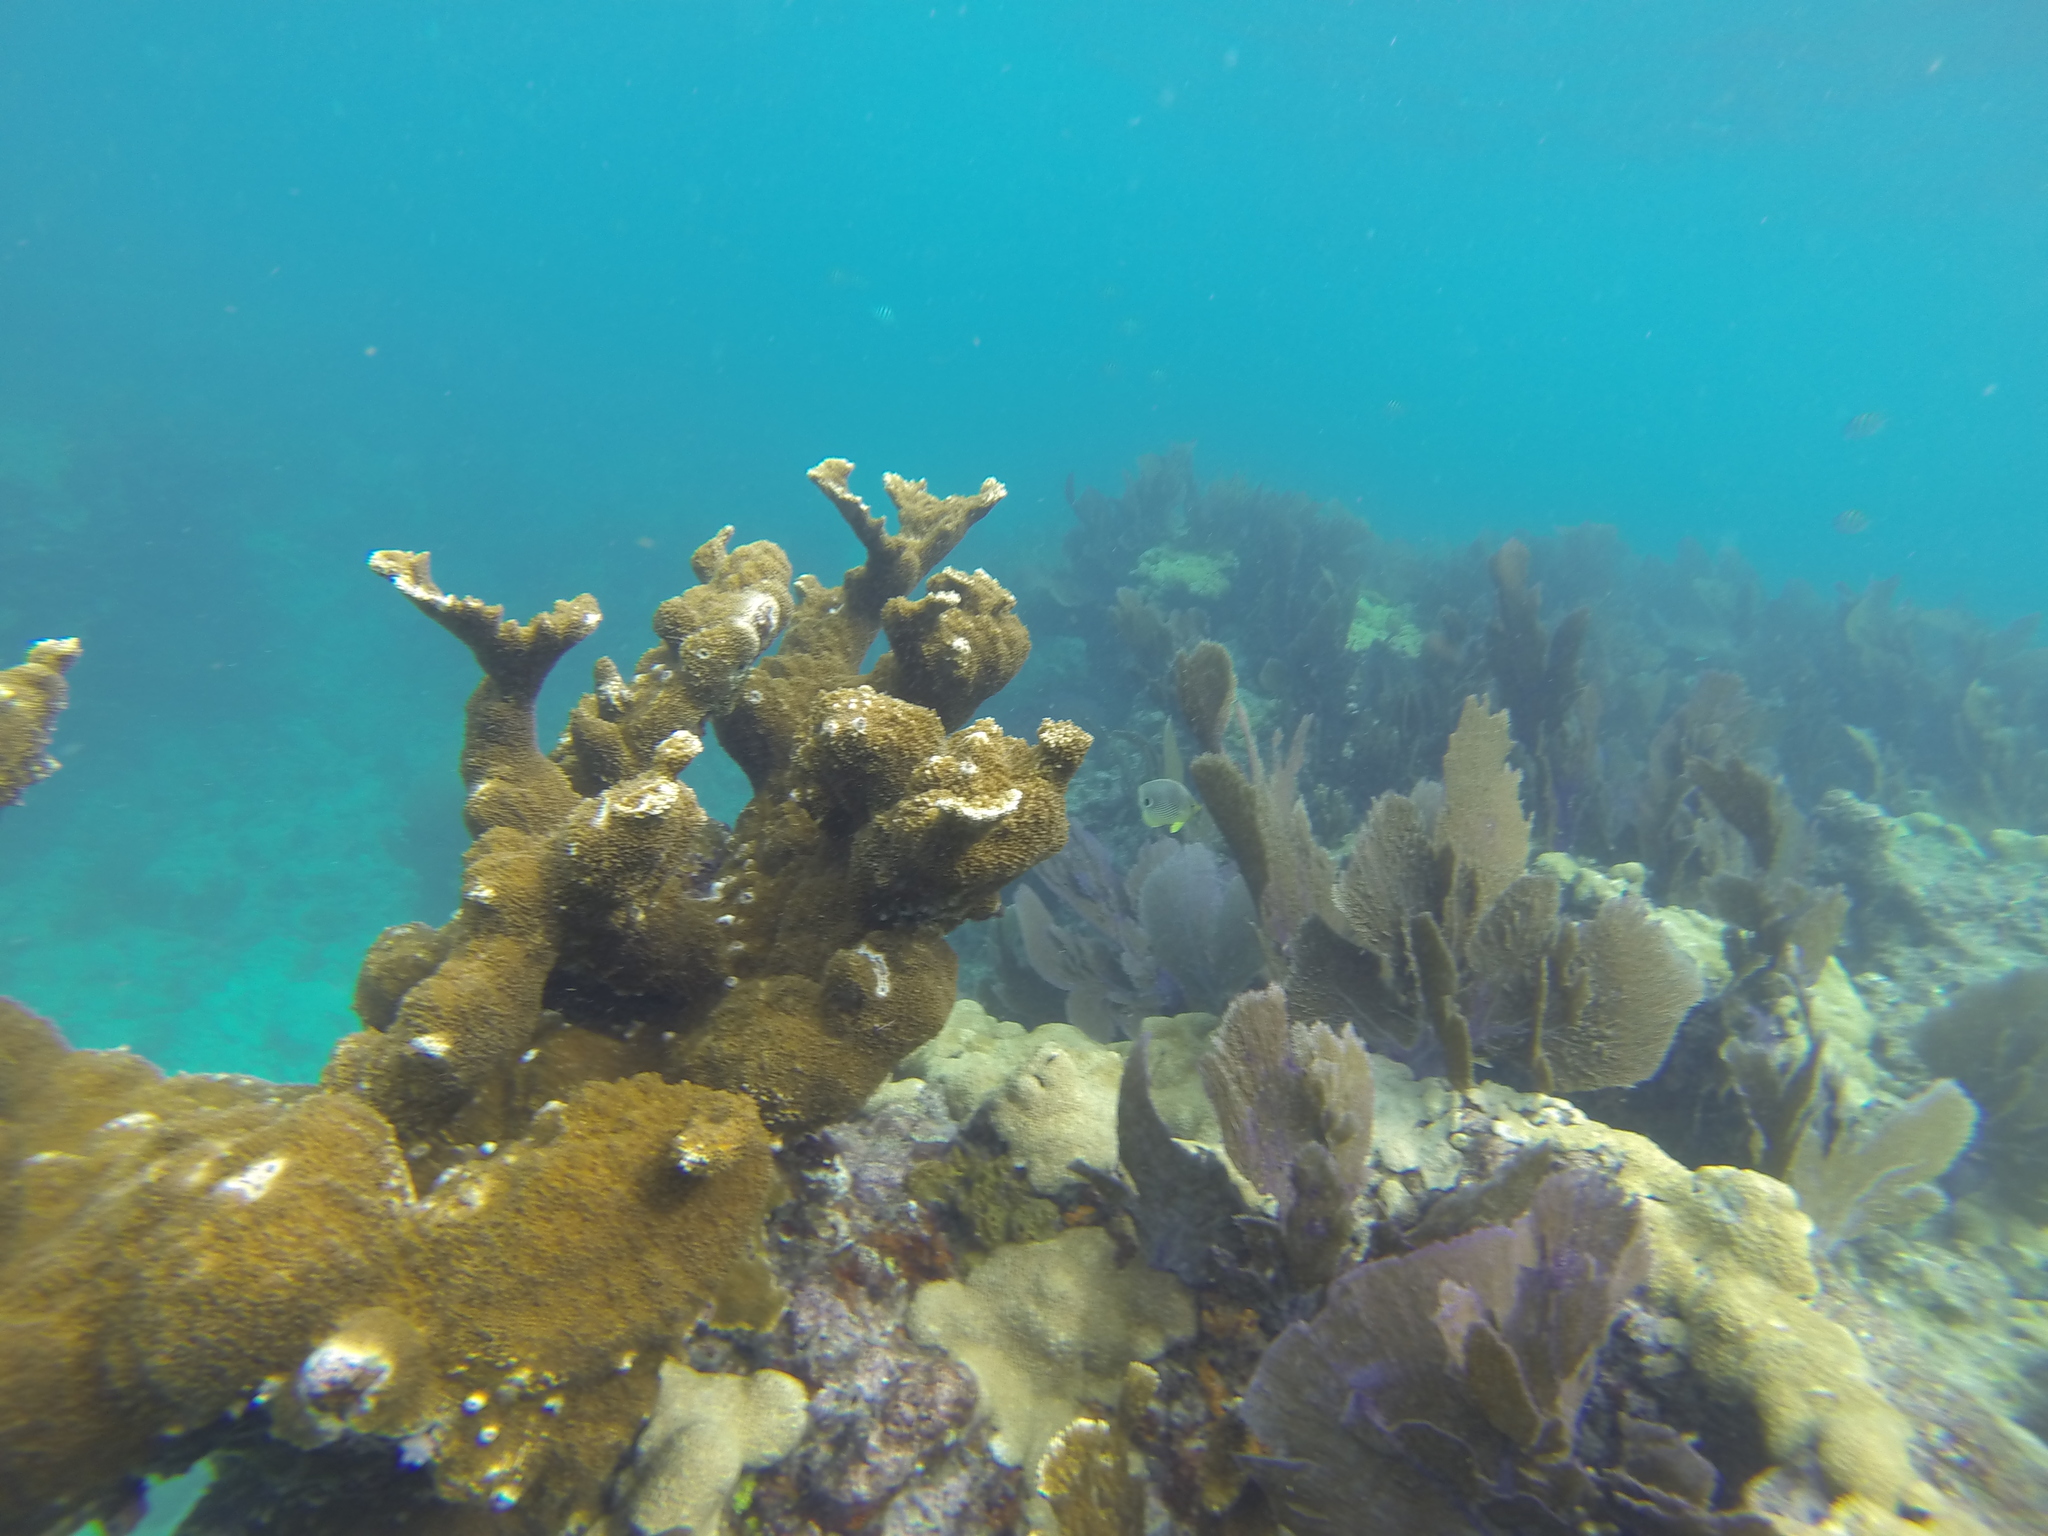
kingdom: Animalia
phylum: Cnidaria
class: Anthozoa
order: Scleractinia
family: Acroporidae
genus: Acropora
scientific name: Acropora palmata
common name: Elkhorn coral
